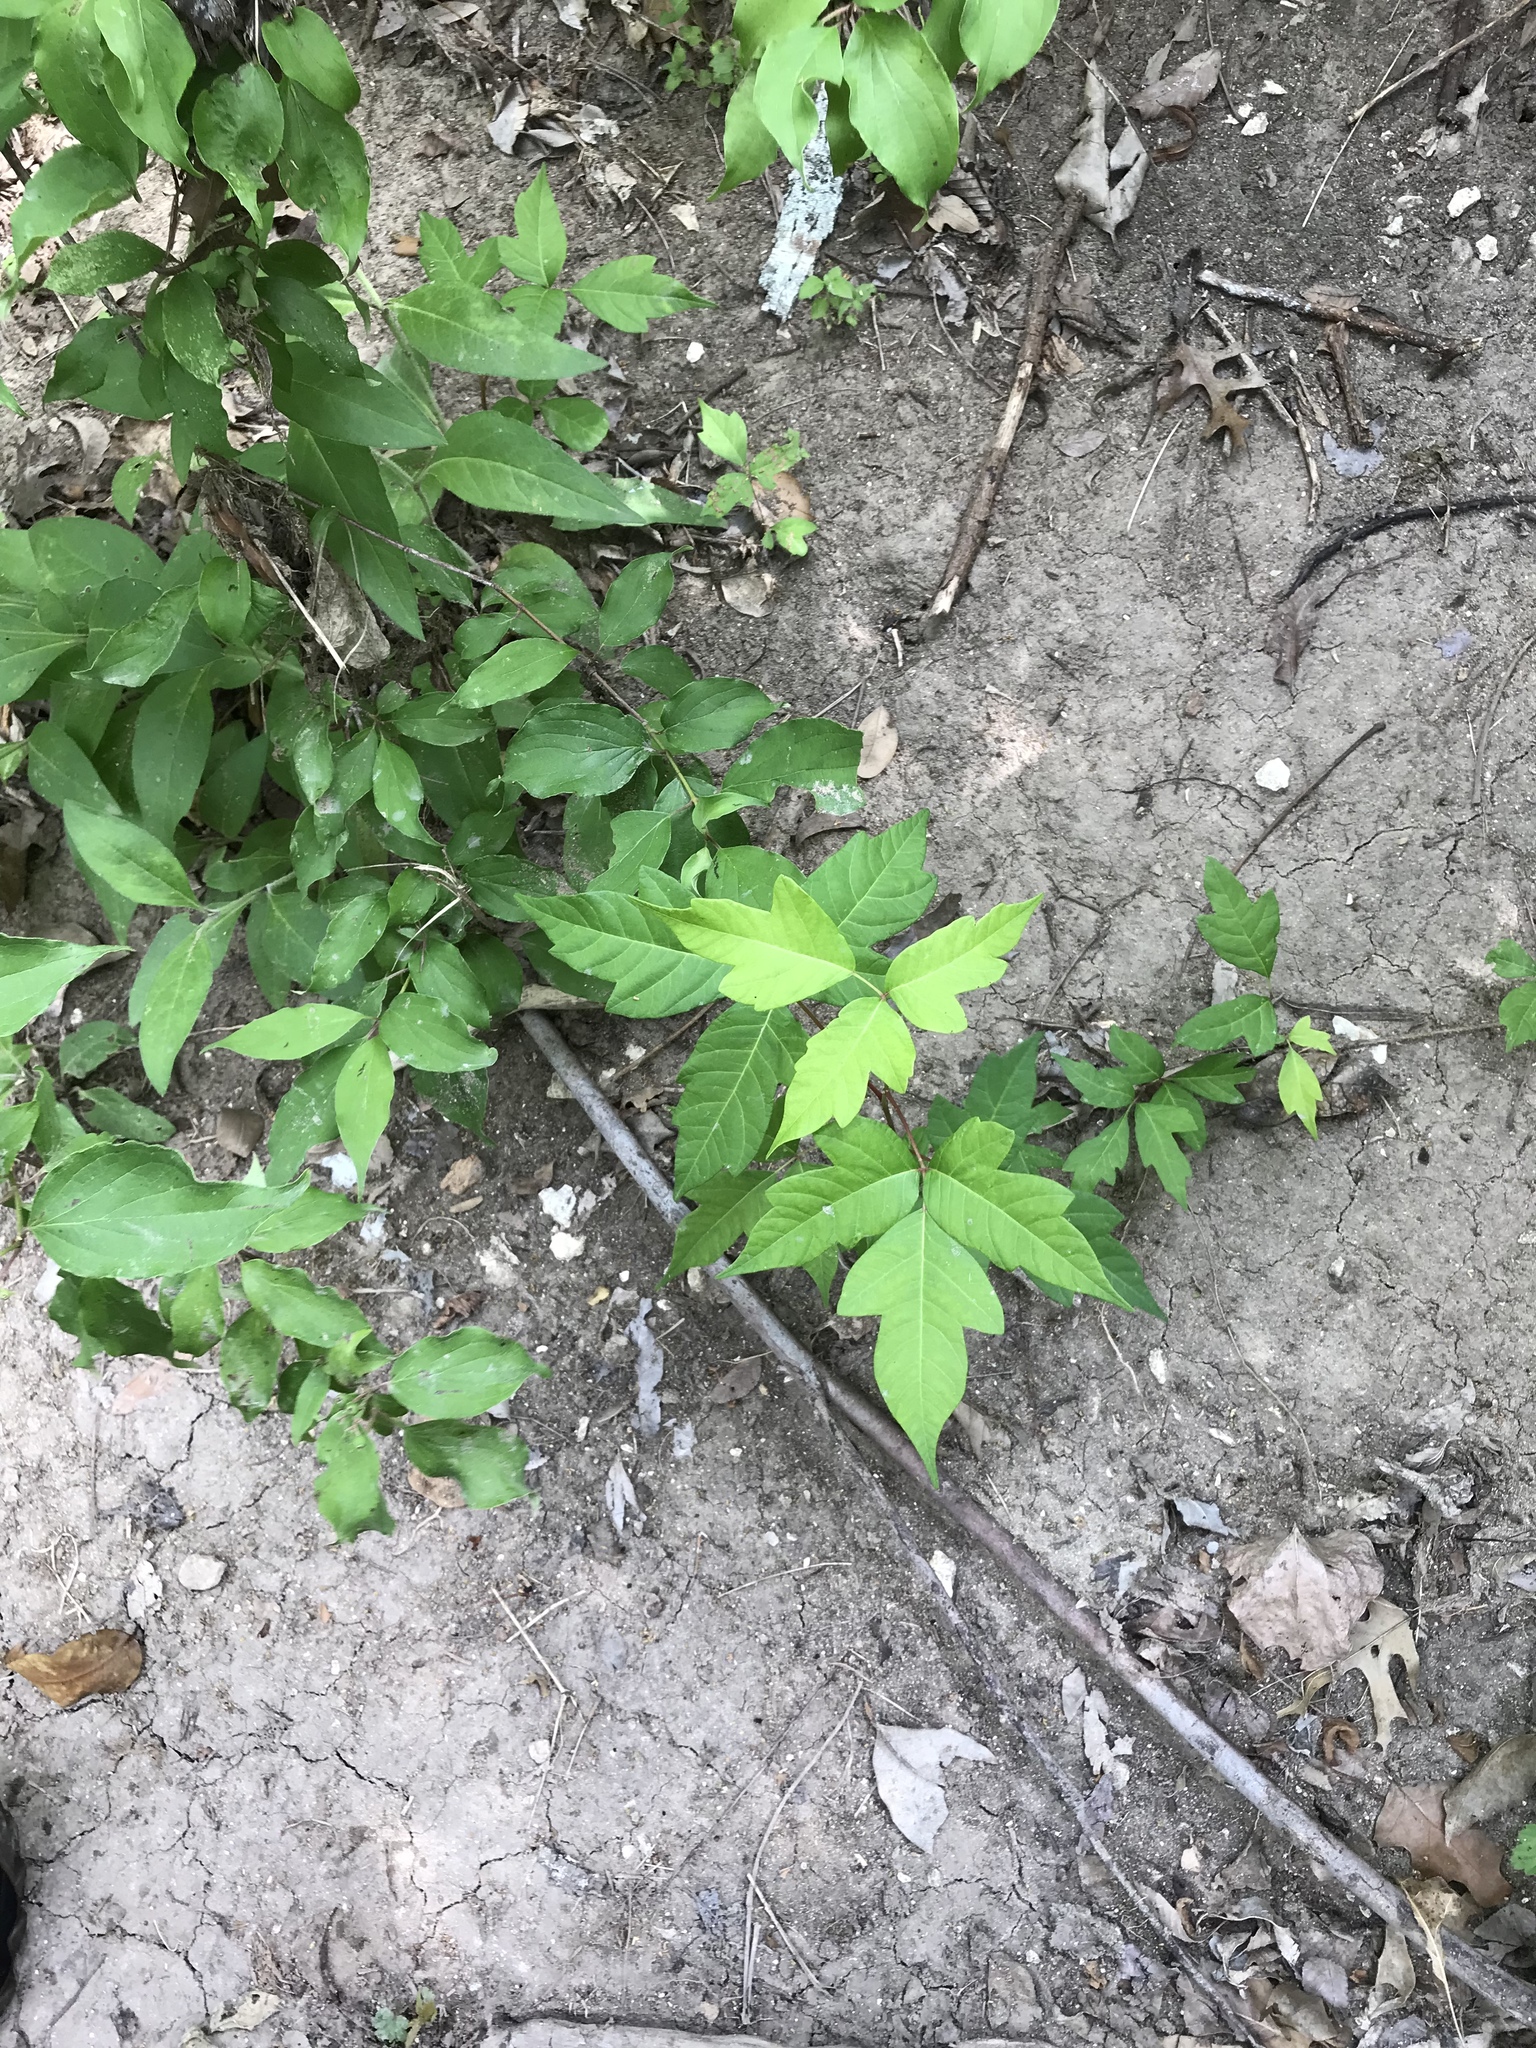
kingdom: Plantae
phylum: Tracheophyta
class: Magnoliopsida
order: Sapindales
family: Anacardiaceae
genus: Toxicodendron
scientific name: Toxicodendron radicans
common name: Poison ivy
